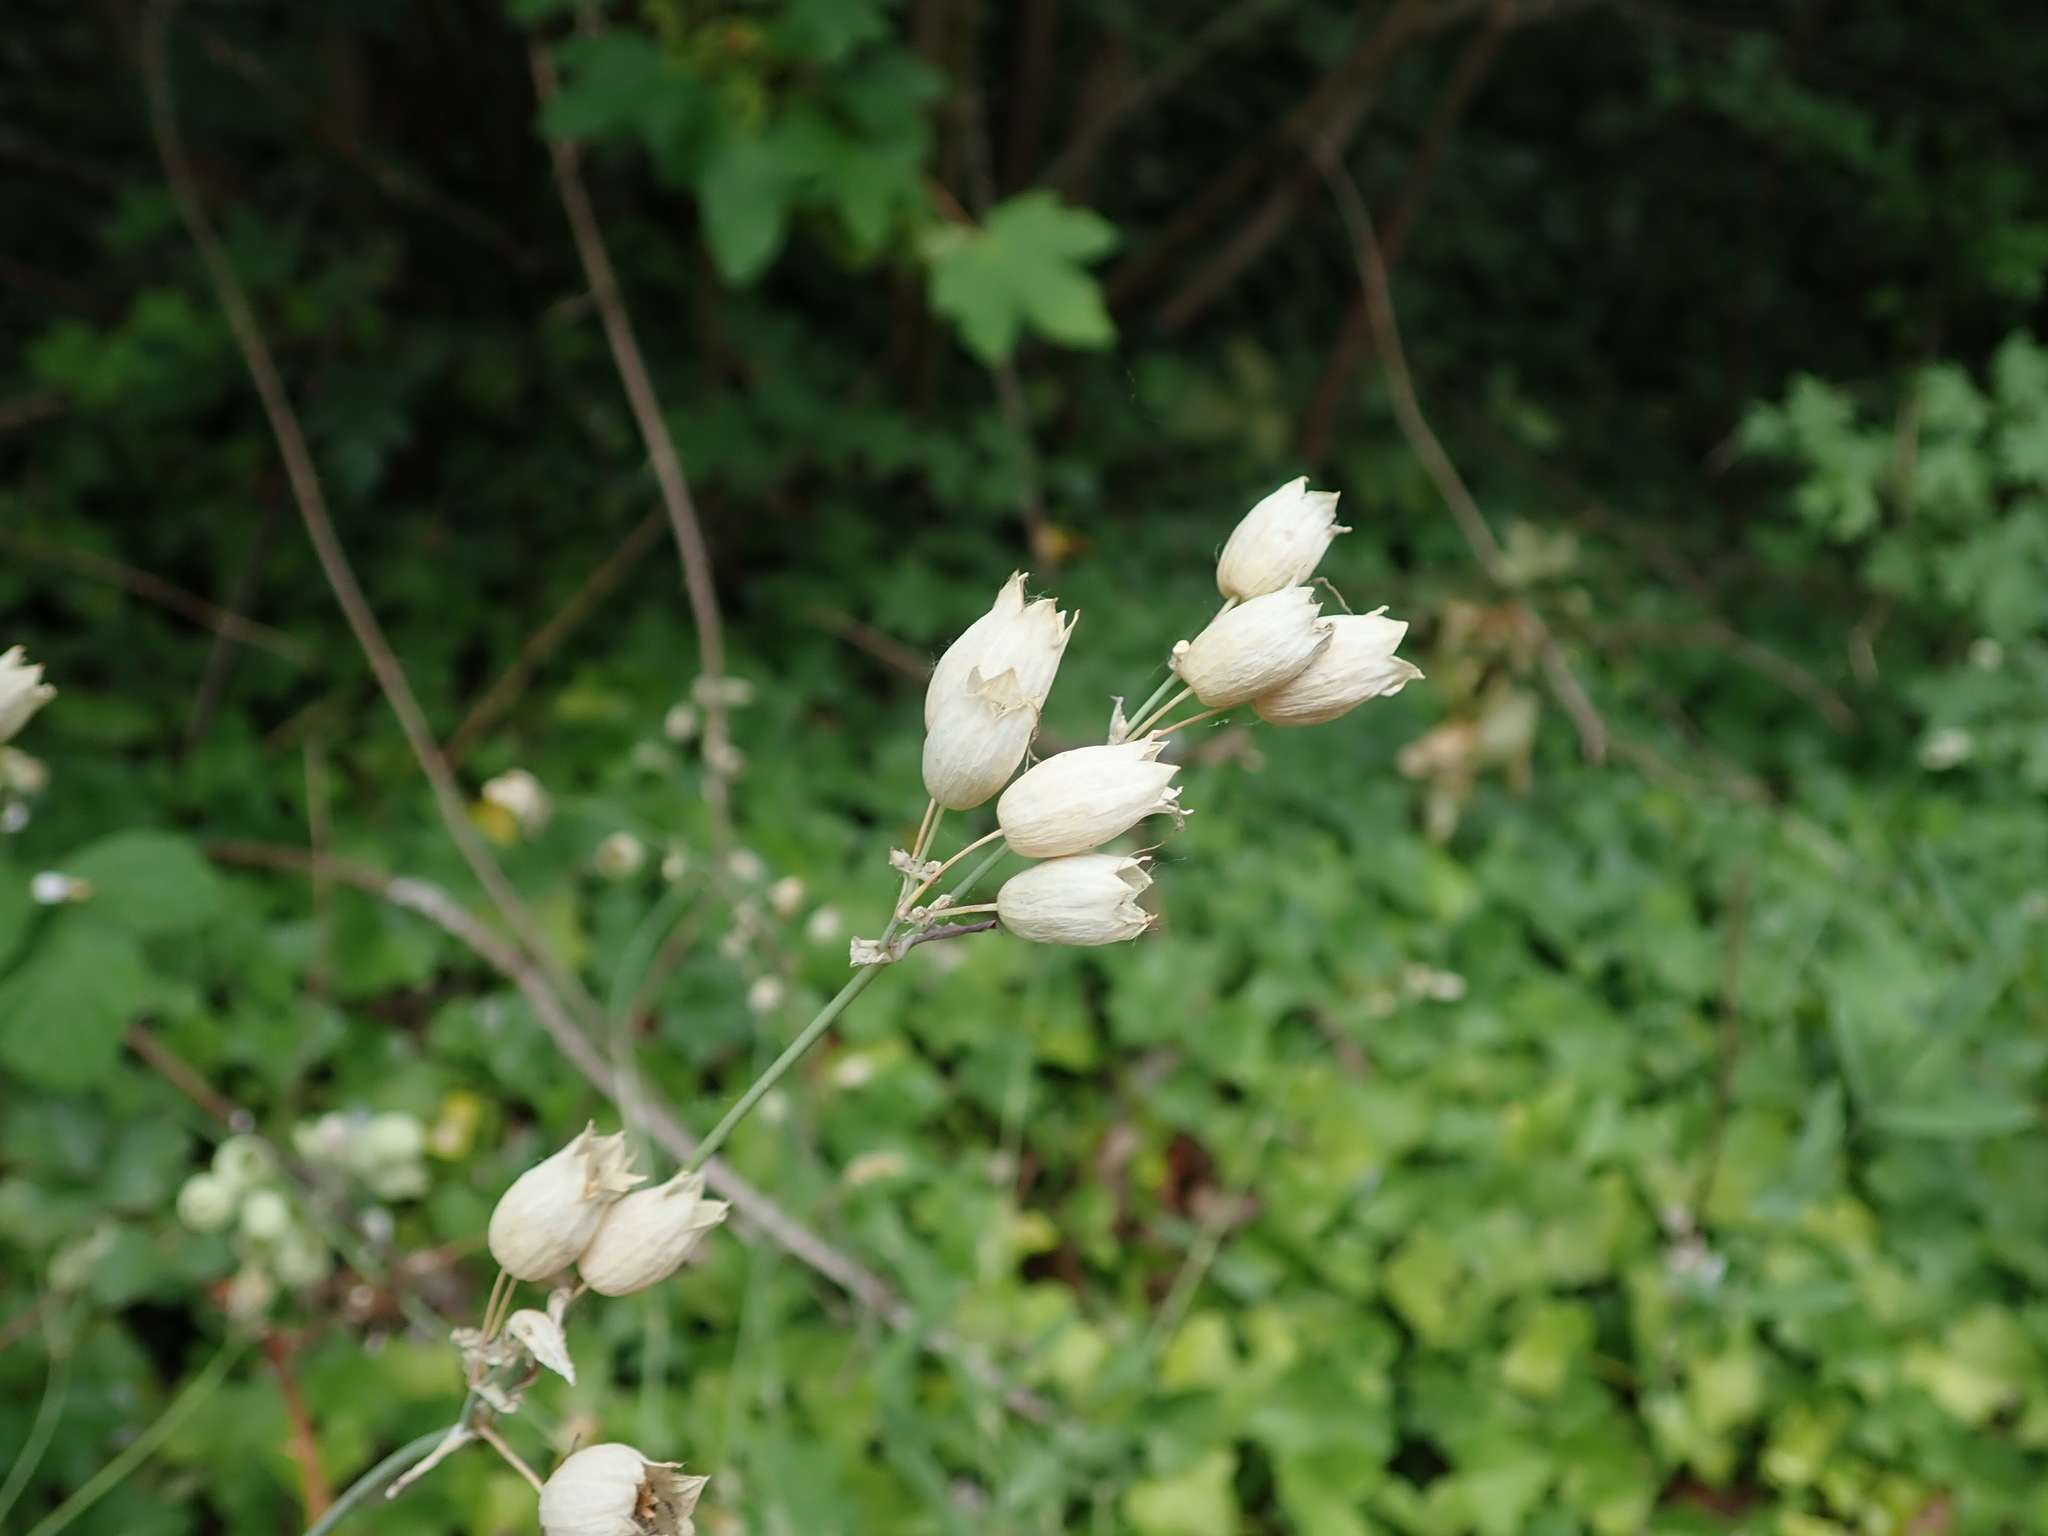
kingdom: Plantae
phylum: Tracheophyta
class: Magnoliopsida
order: Caryophyllales
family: Caryophyllaceae
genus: Silene
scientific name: Silene vulgaris
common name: Bladder campion
